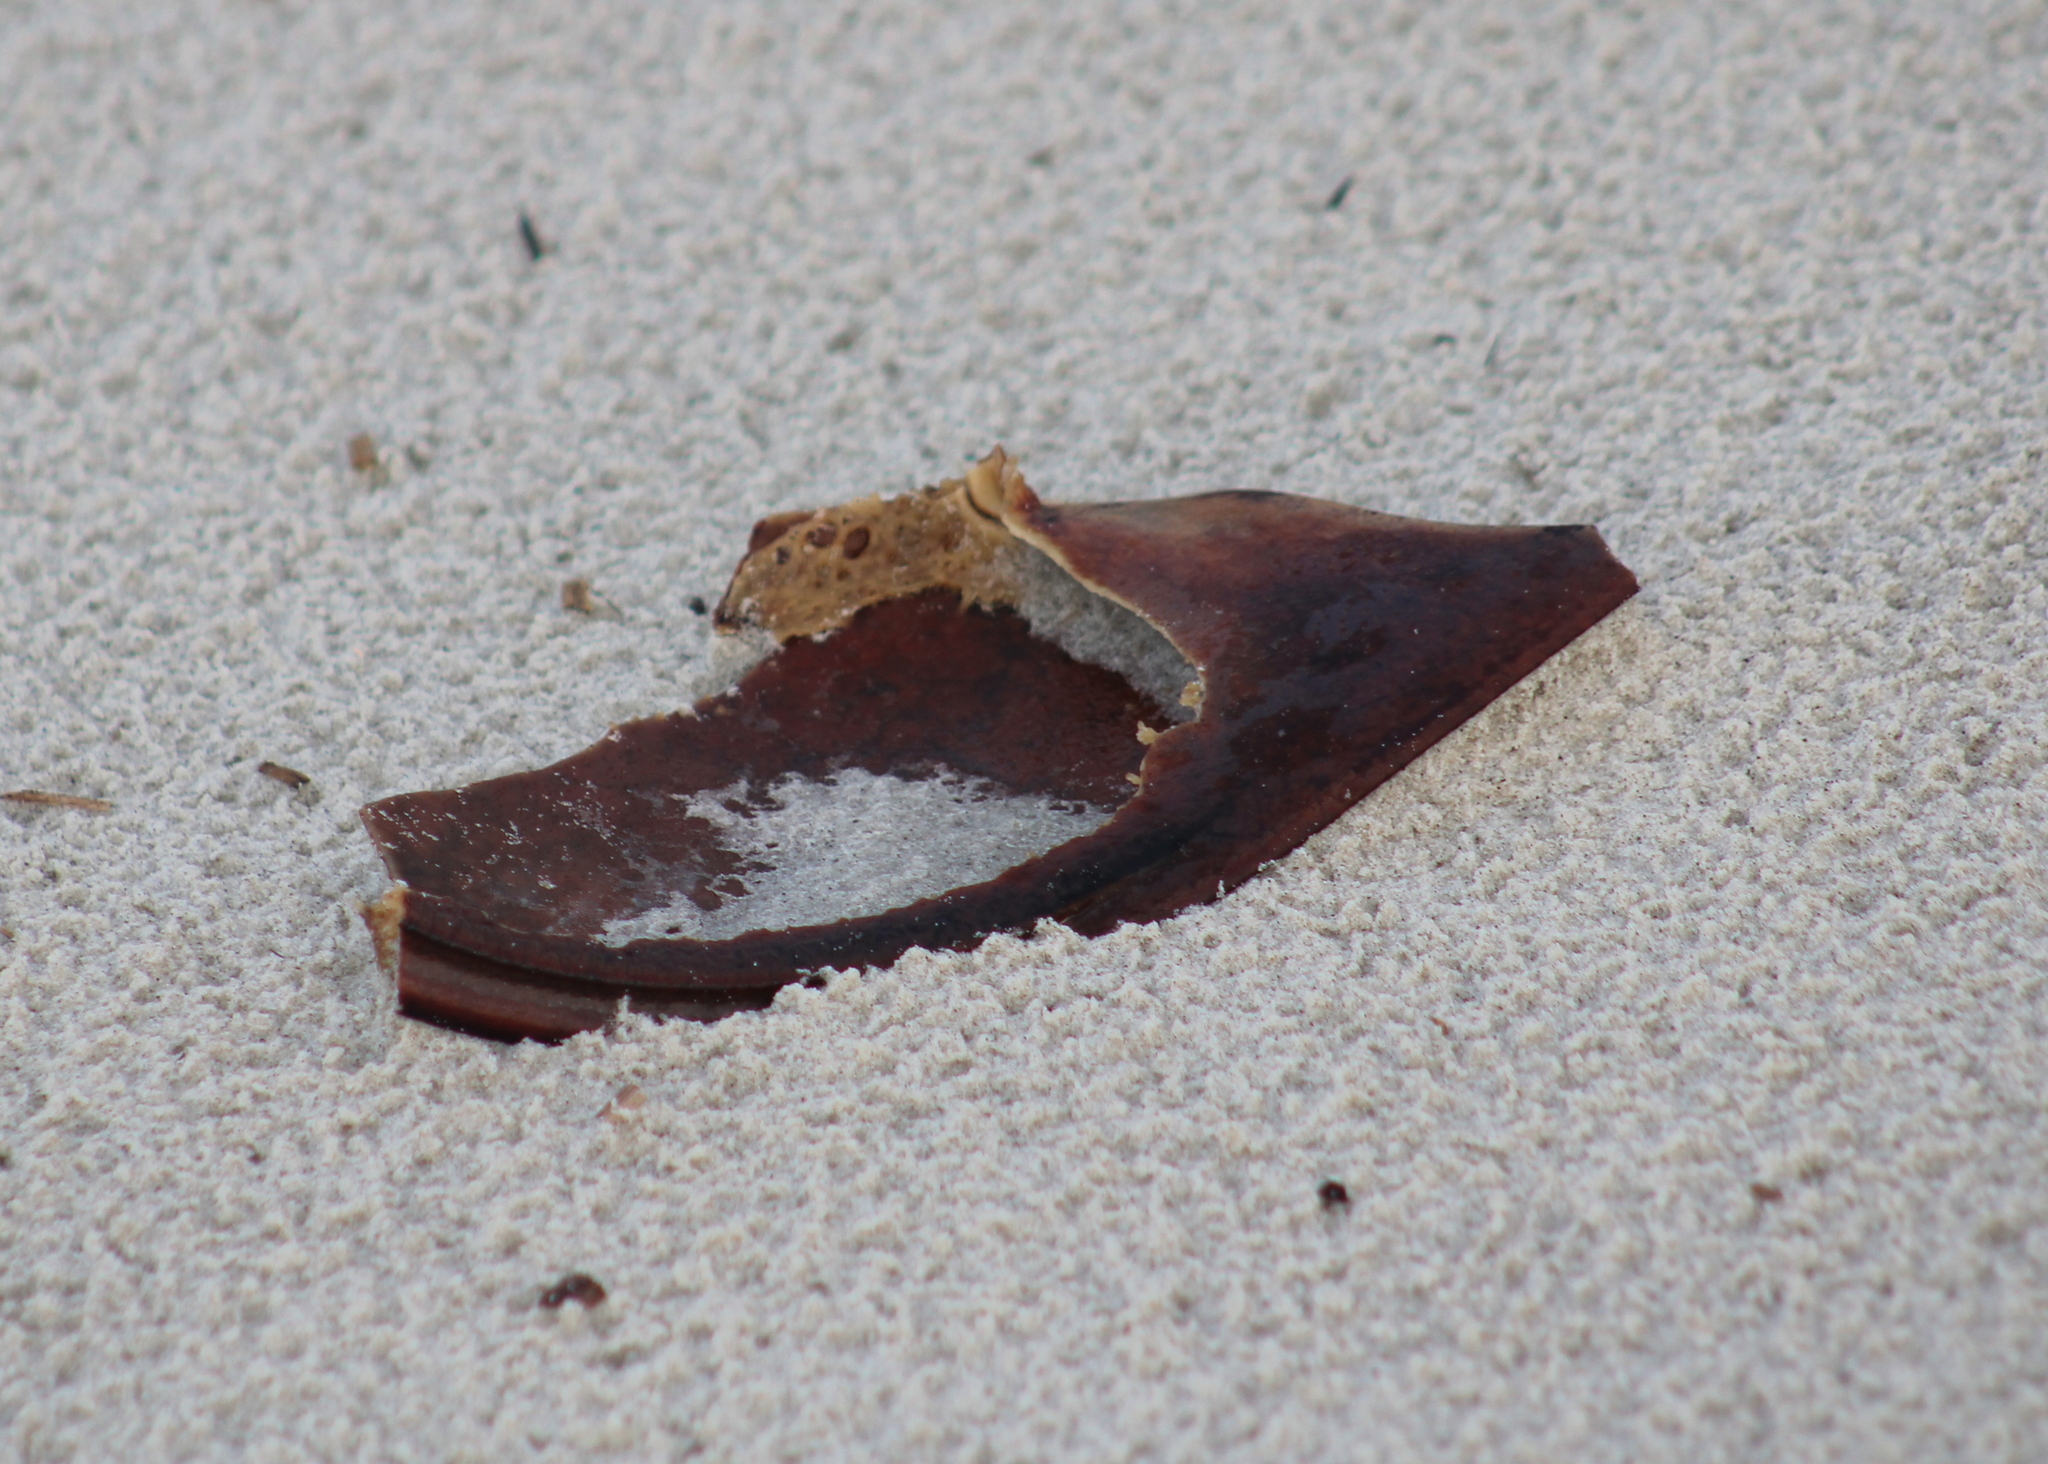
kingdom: Animalia
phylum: Arthropoda
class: Merostomata
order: Xiphosurida
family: Limulidae
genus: Limulus
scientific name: Limulus polyphemus
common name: Horseshoe crab
